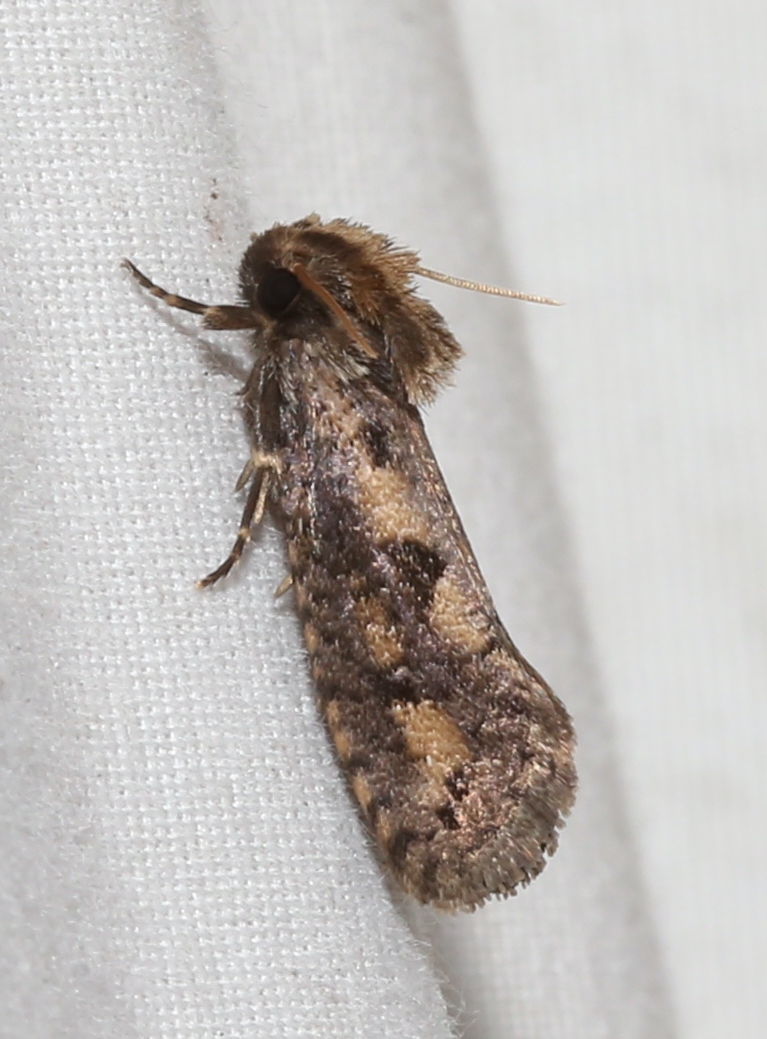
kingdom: Animalia
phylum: Arthropoda
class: Insecta
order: Lepidoptera
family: Tineidae
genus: Acrolophus
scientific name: Acrolophus popeanella
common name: Clemens' grass tubeworm moth
